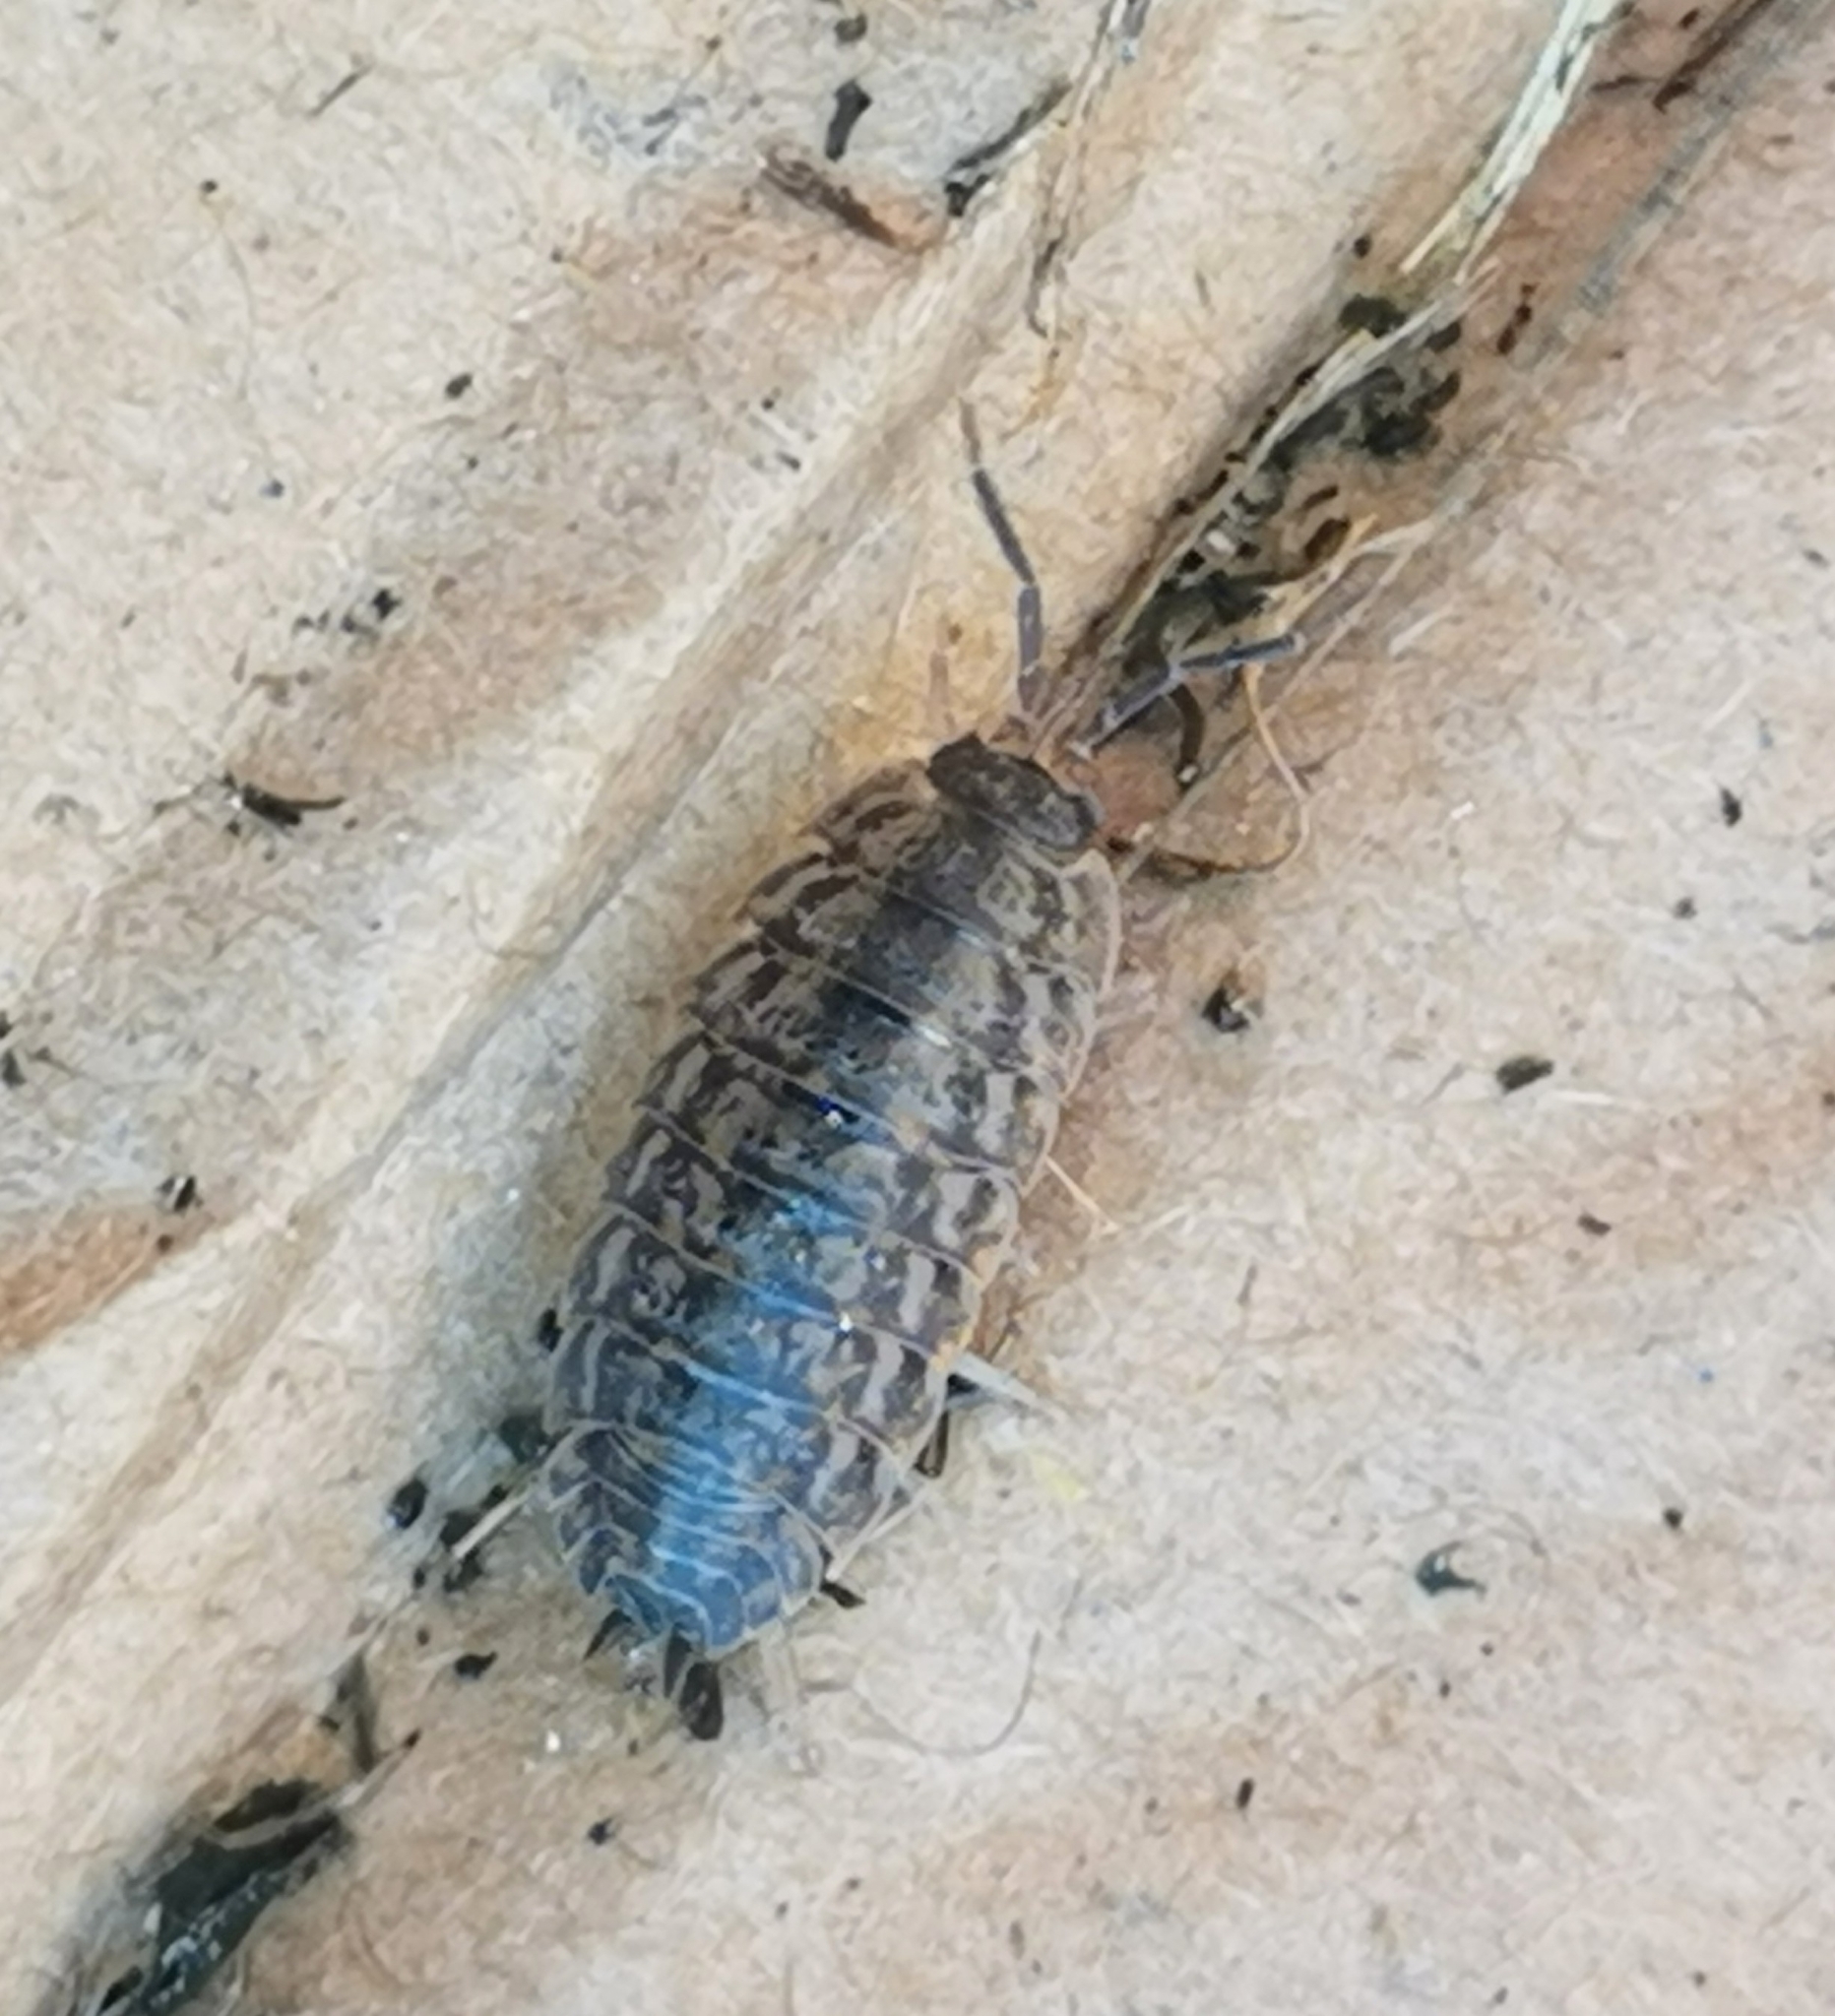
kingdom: Animalia
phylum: Arthropoda
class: Malacostraca
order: Isopoda
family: Trachelipodidae
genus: Trachelipus
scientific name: Trachelipus rathkii
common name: Isopod
